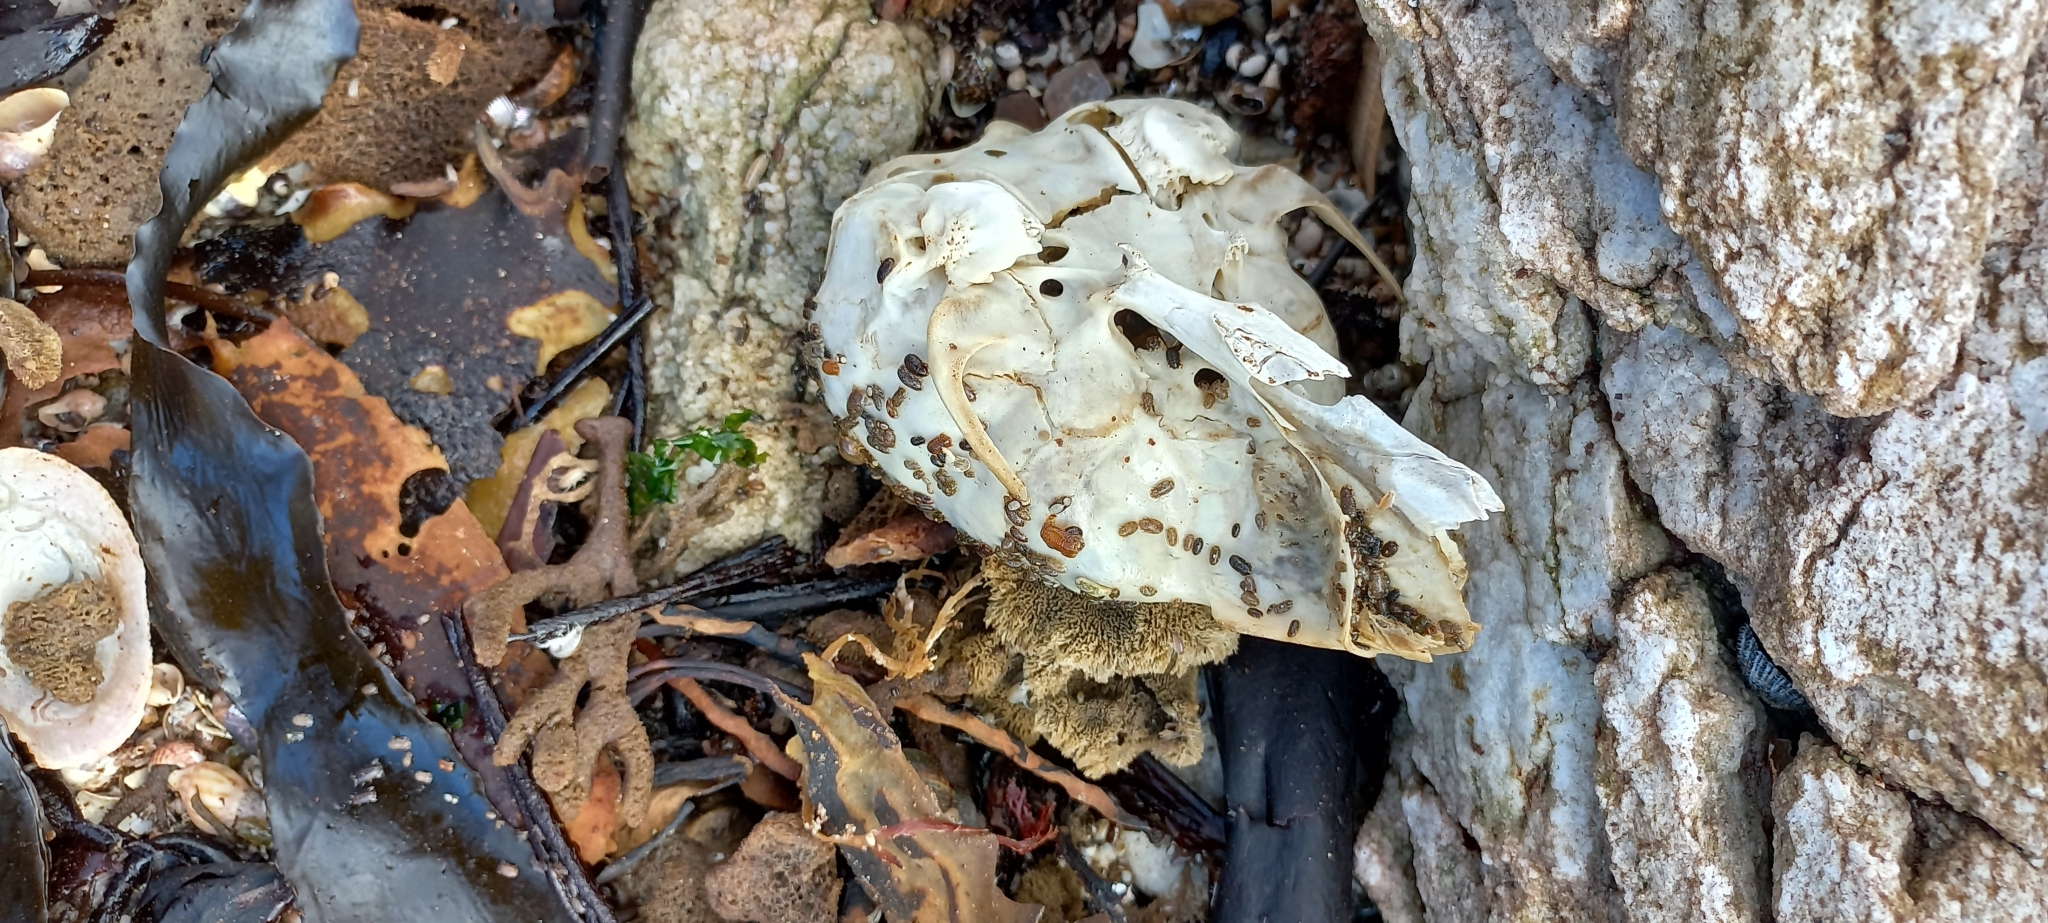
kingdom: Animalia
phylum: Chordata
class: Mammalia
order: Carnivora
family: Otariidae
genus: Arctocephalus
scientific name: Arctocephalus pusillus
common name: Brown fur seal
